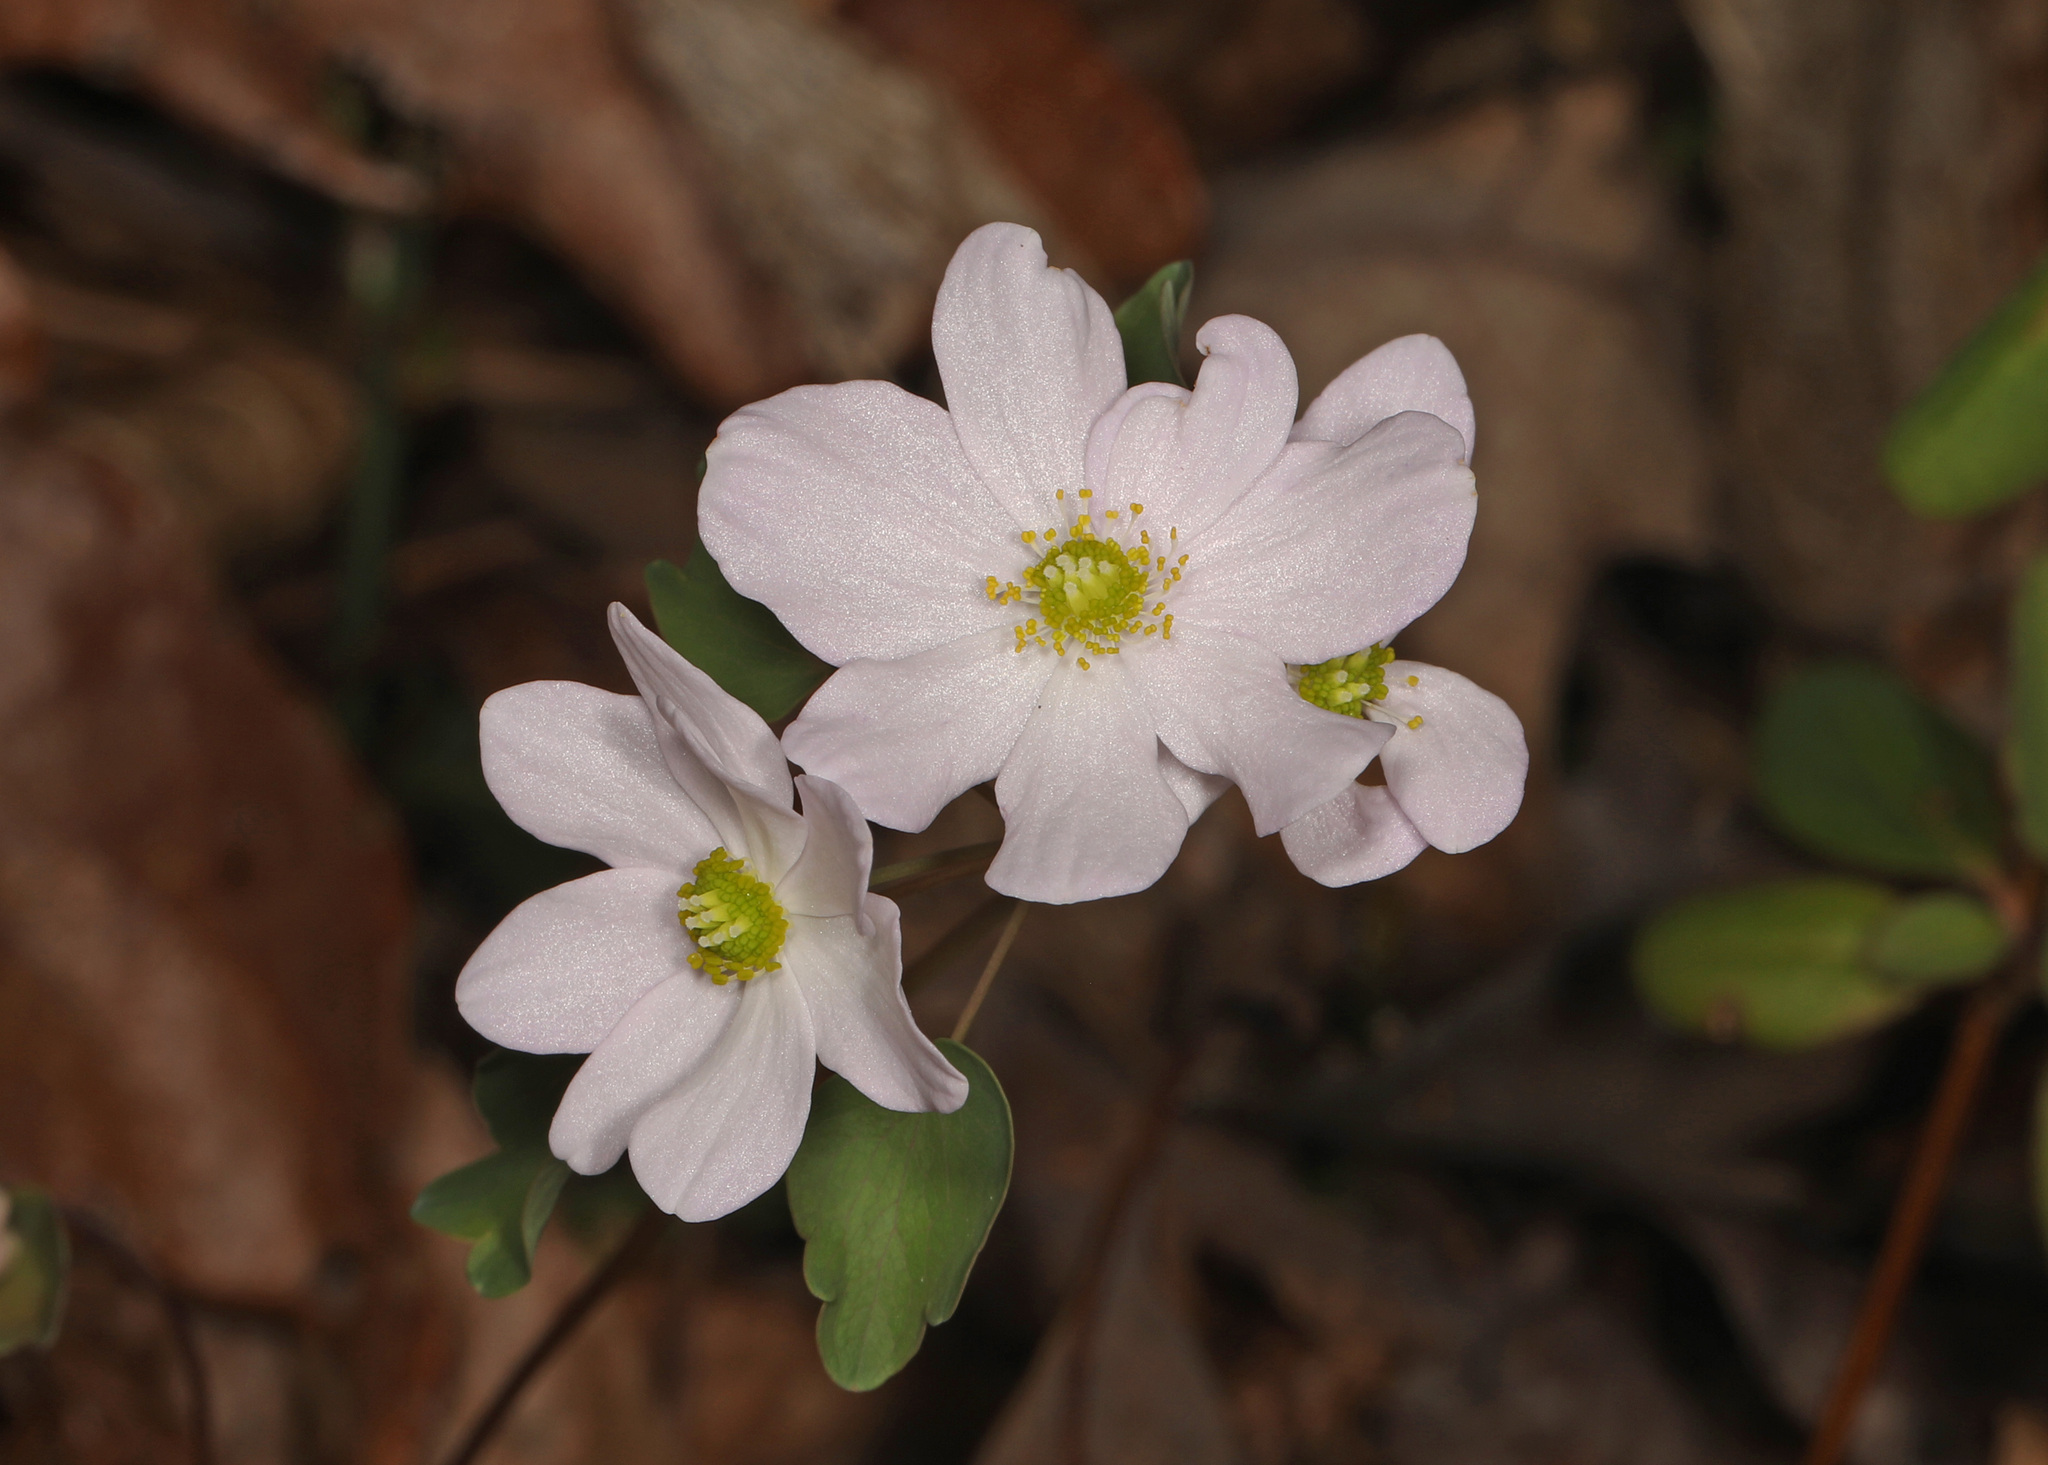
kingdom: Plantae
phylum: Tracheophyta
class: Magnoliopsida
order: Ranunculales
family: Ranunculaceae
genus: Thalictrum
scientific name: Thalictrum thalictroides
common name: Rue-anemone
